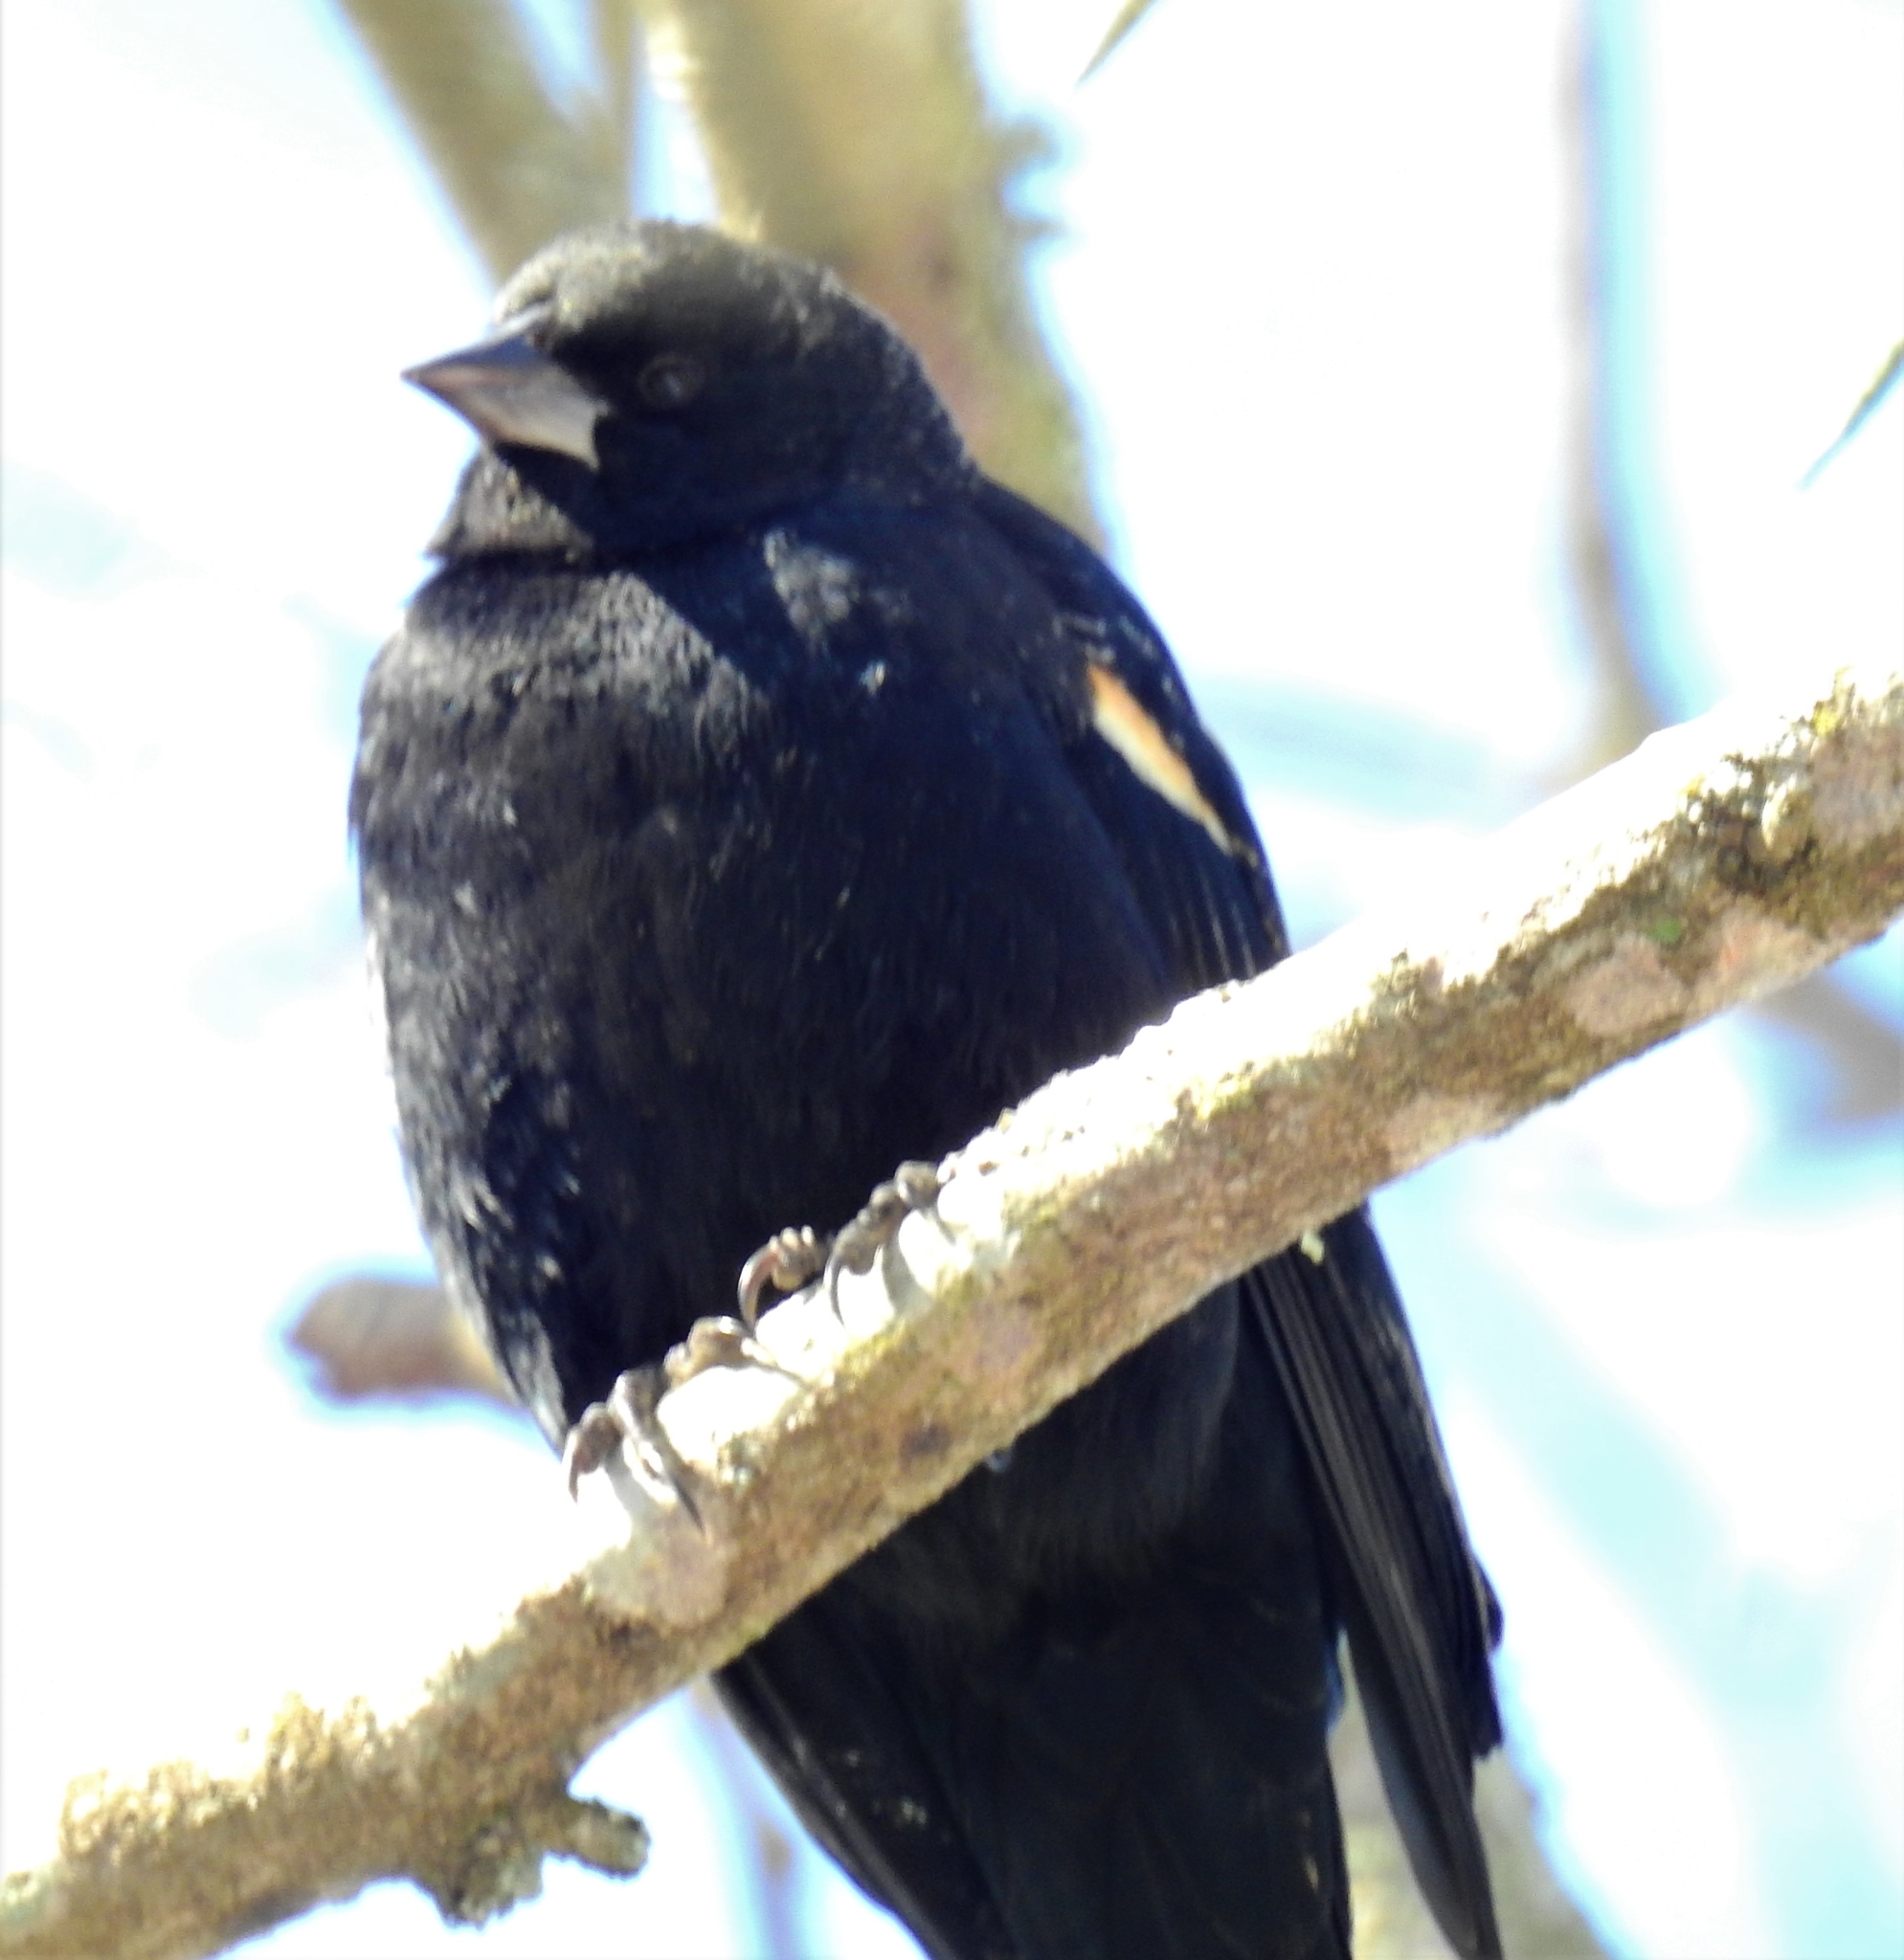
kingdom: Animalia
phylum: Chordata
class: Aves
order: Passeriformes
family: Icteridae
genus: Agelaius
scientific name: Agelaius phoeniceus
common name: Red-winged blackbird
